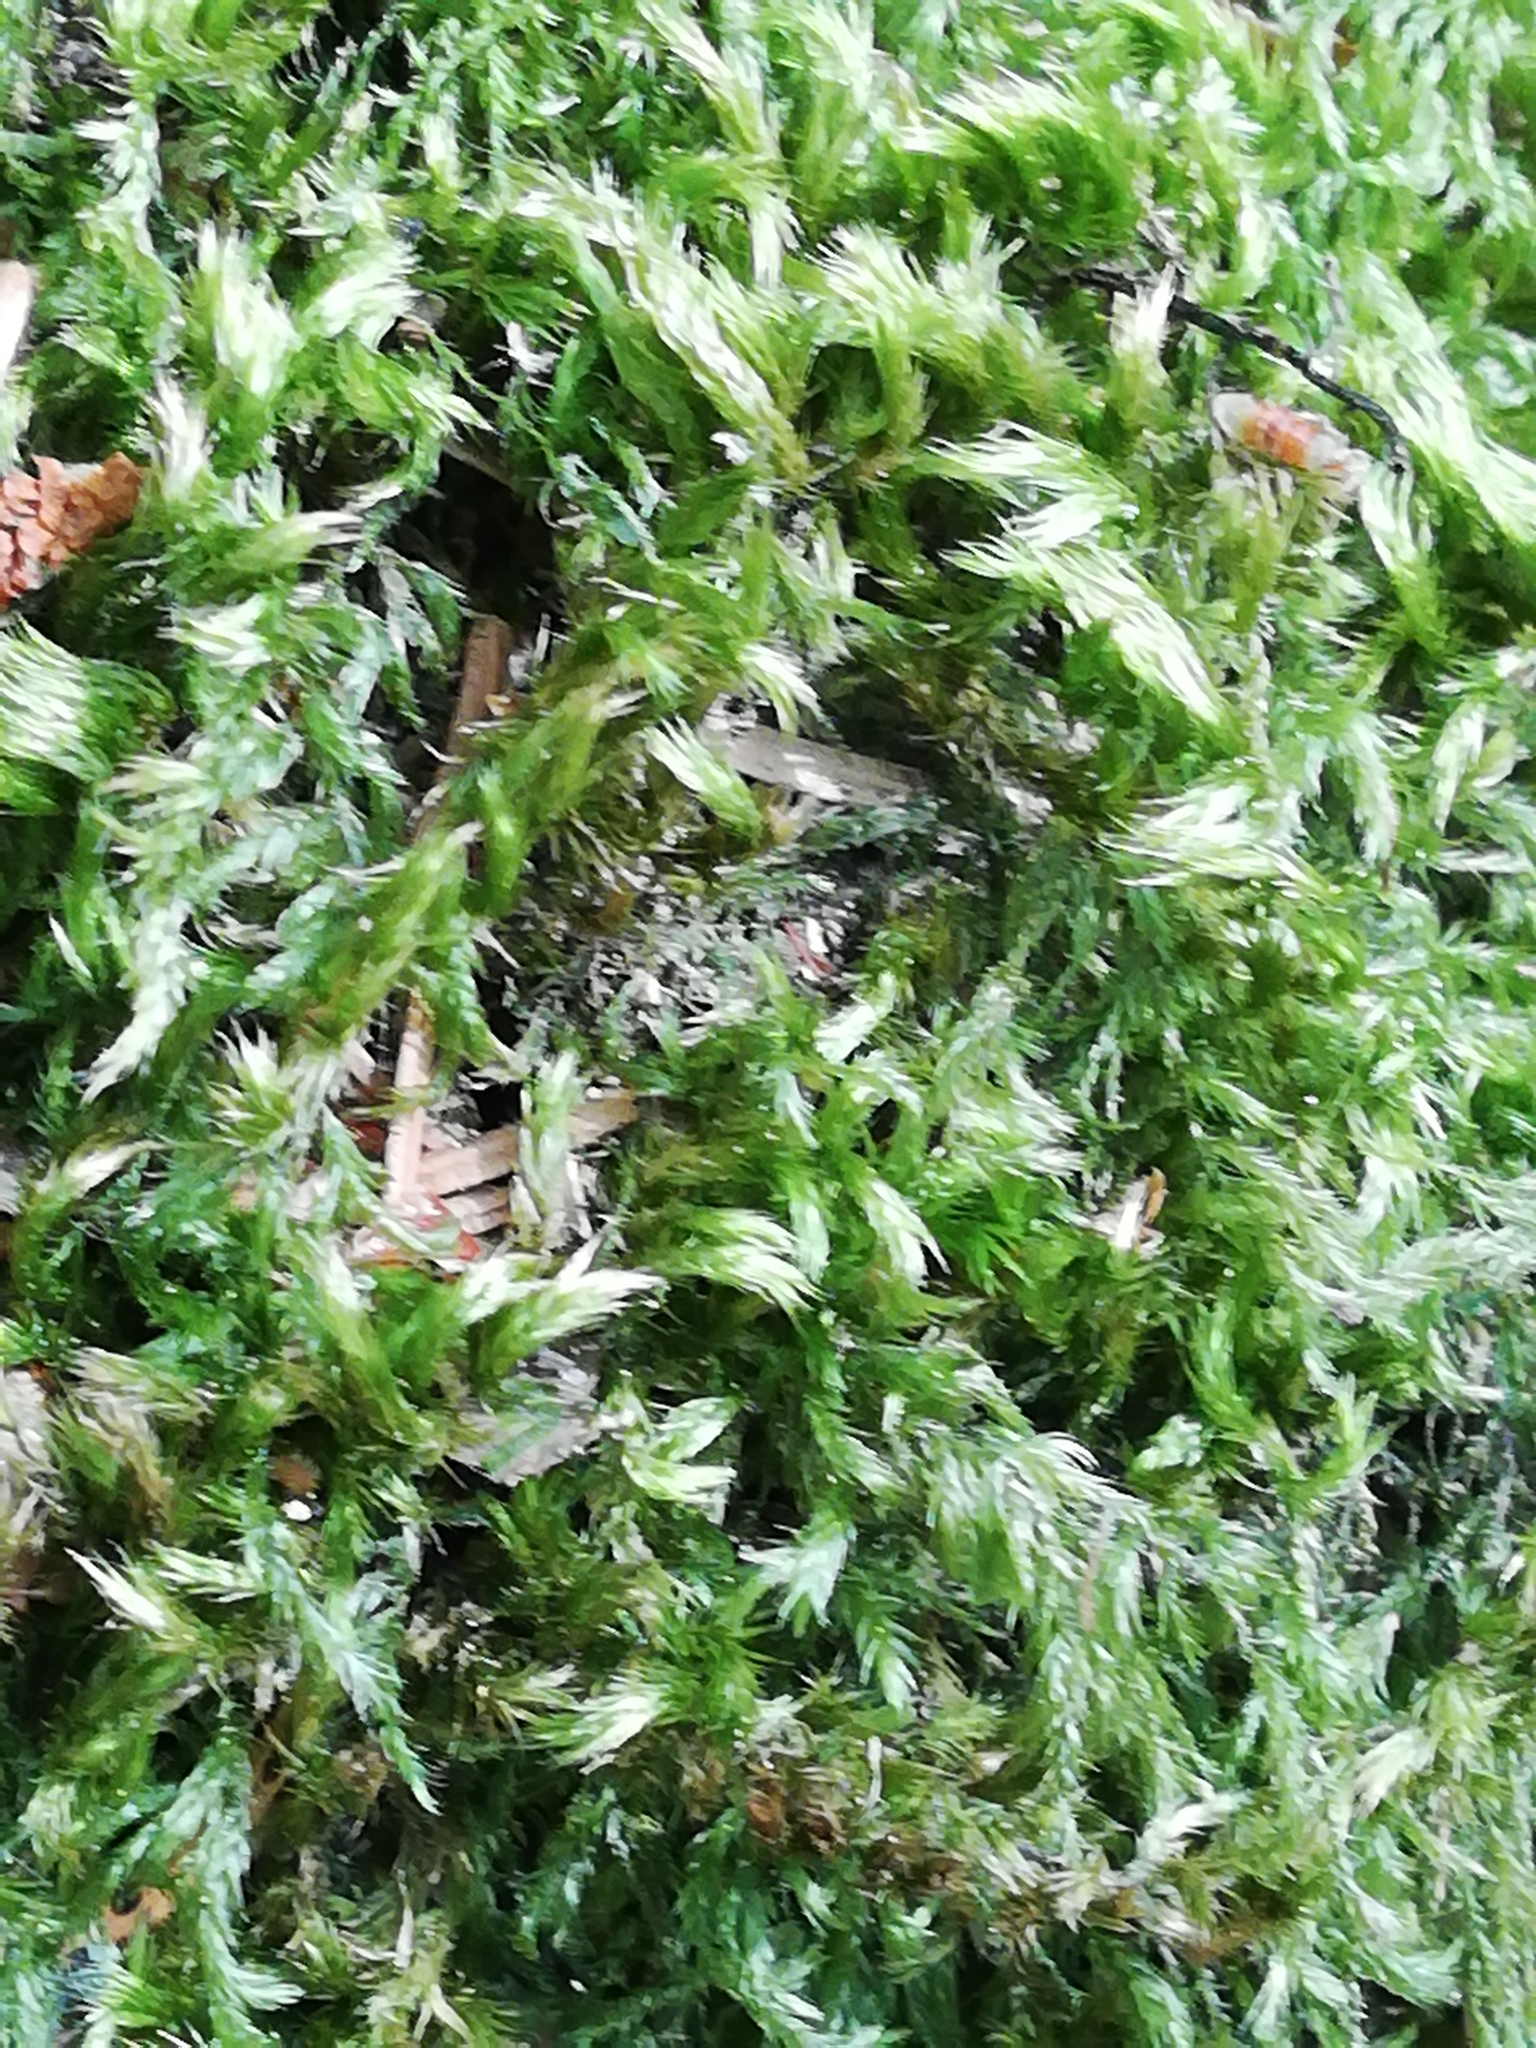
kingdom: Plantae
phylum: Bryophyta
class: Bryopsida
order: Hypnales
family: Brachytheciaceae
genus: Homalothecium
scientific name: Homalothecium sericeum
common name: Silky wall feather-moss
